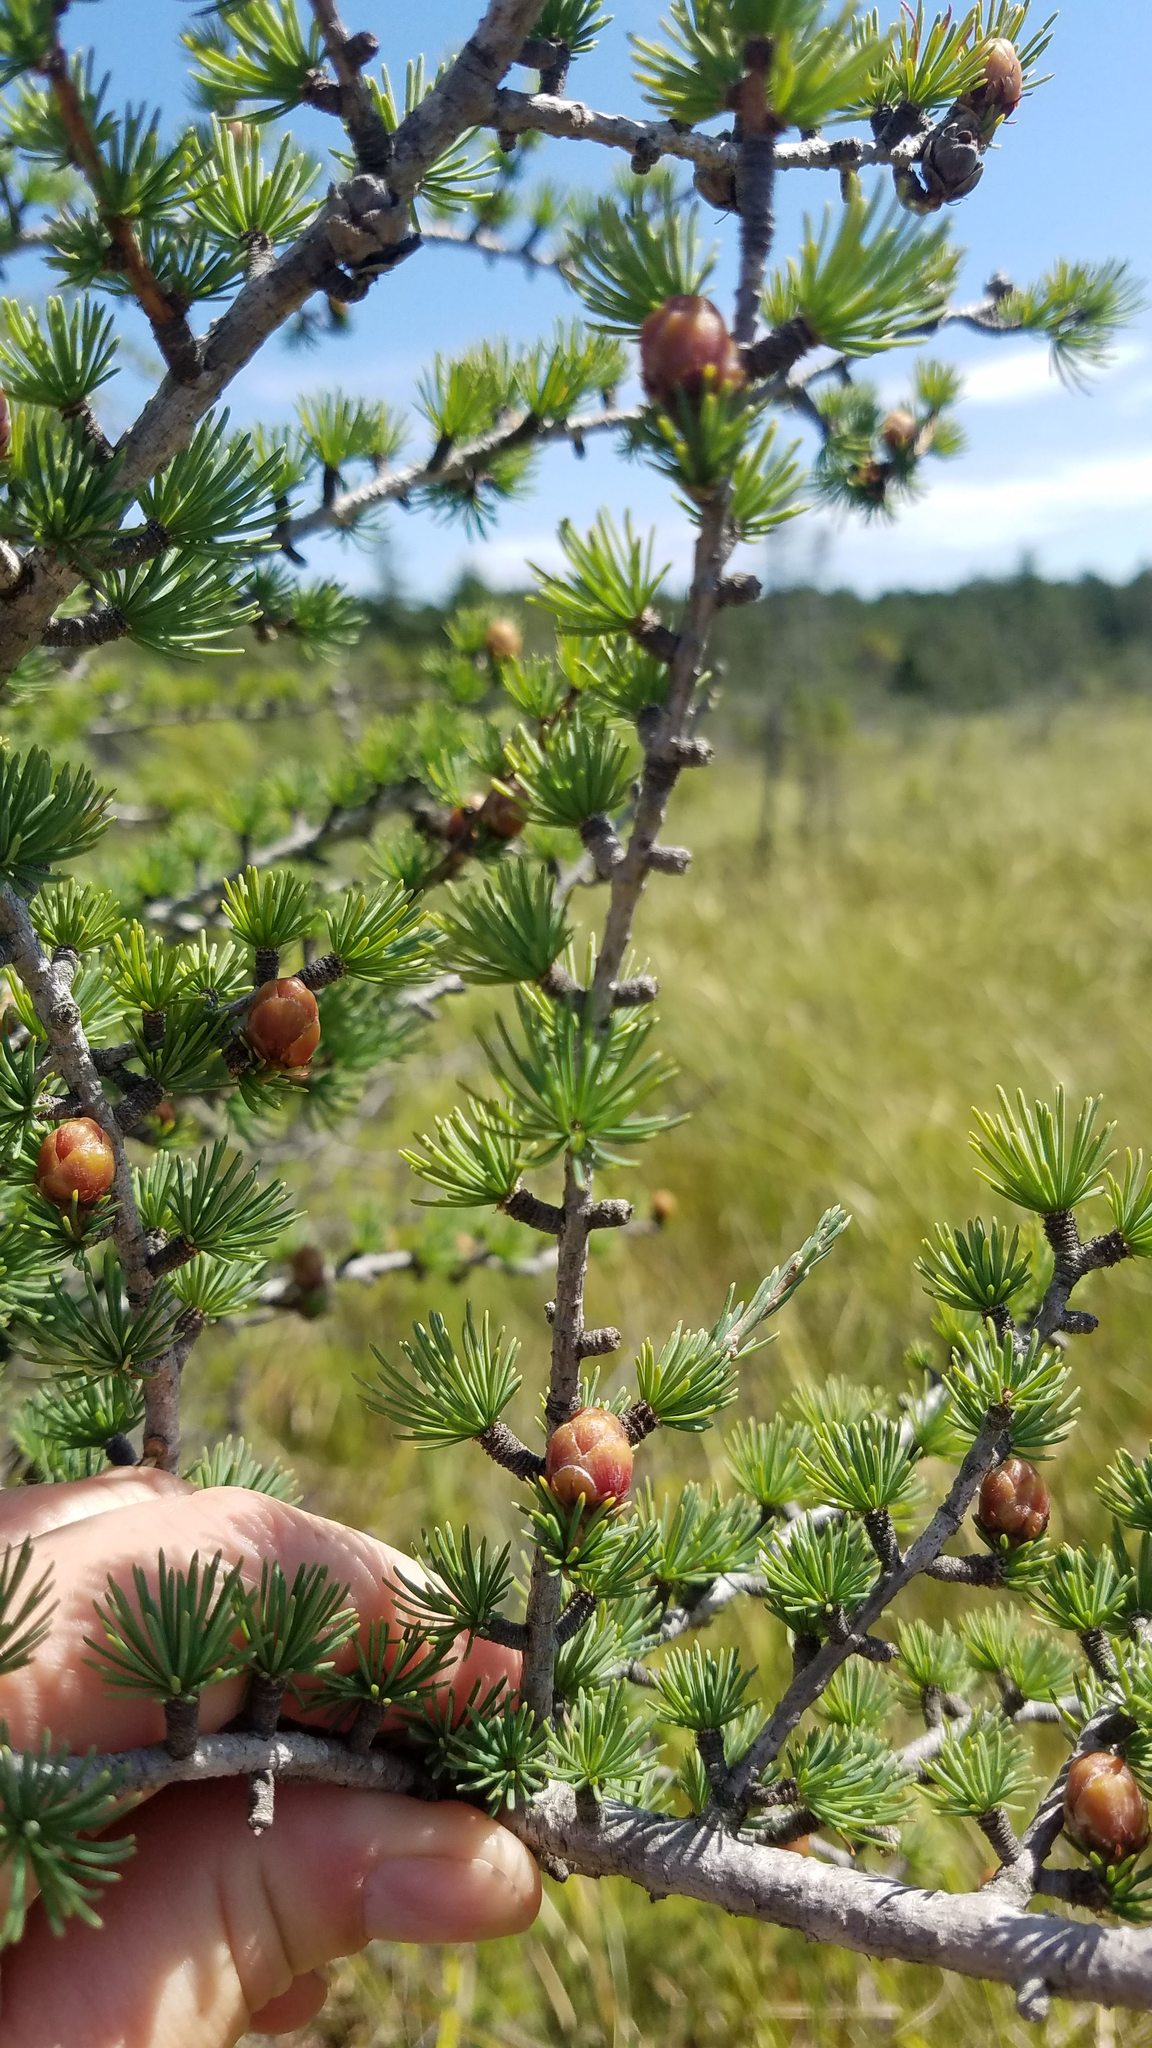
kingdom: Plantae
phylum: Tracheophyta
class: Pinopsida
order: Pinales
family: Pinaceae
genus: Larix
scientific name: Larix laricina
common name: American larch
